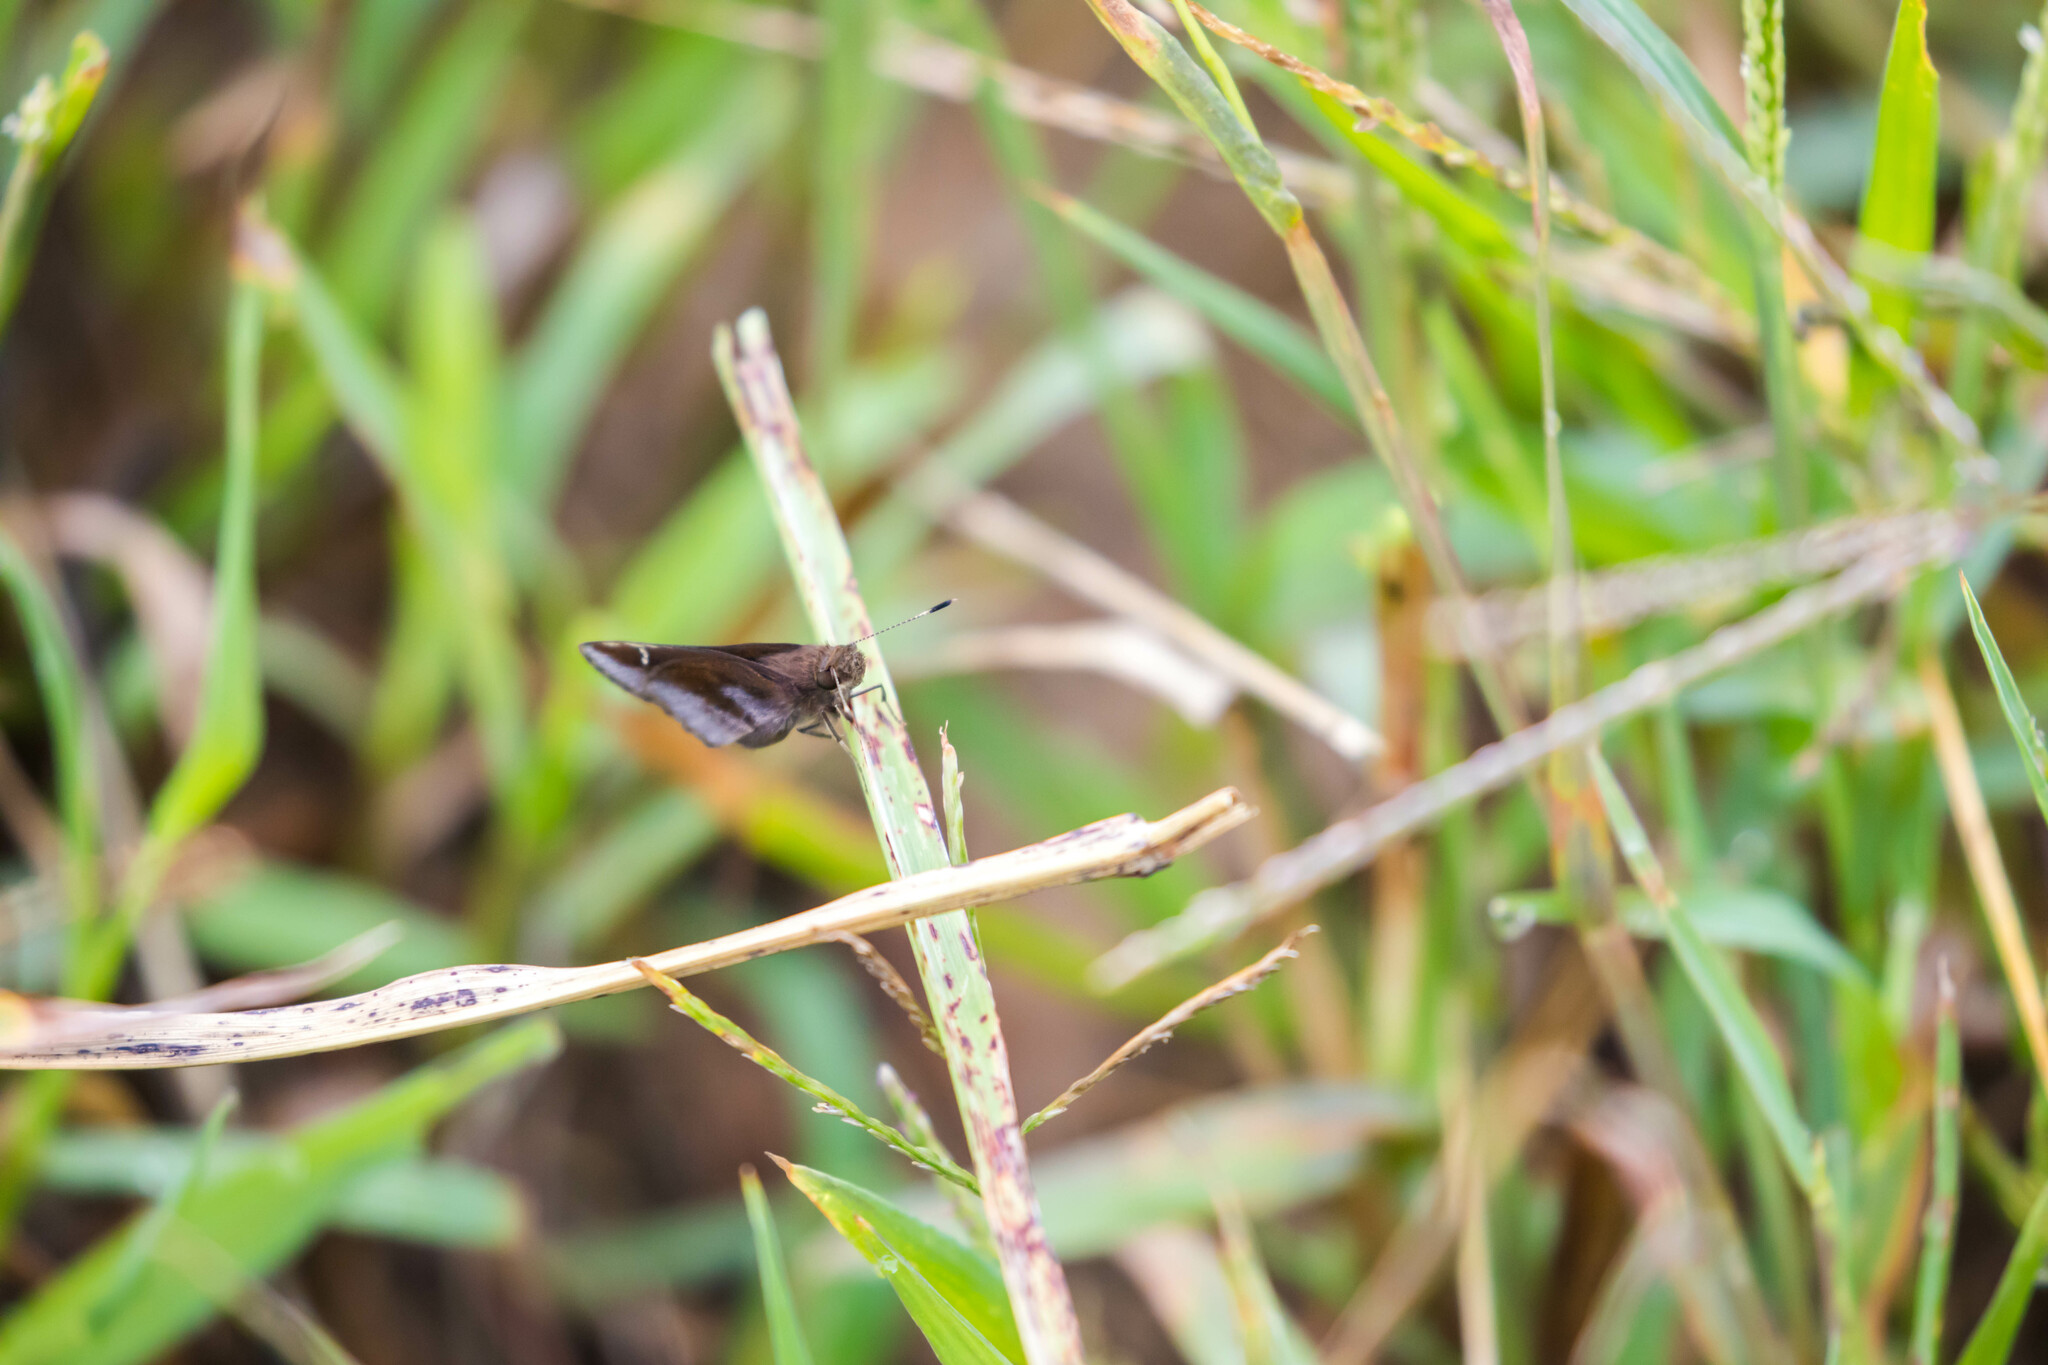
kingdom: Animalia
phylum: Arthropoda
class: Insecta
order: Lepidoptera
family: Hesperiidae
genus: Lerema
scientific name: Lerema accius
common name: Clouded skipper
